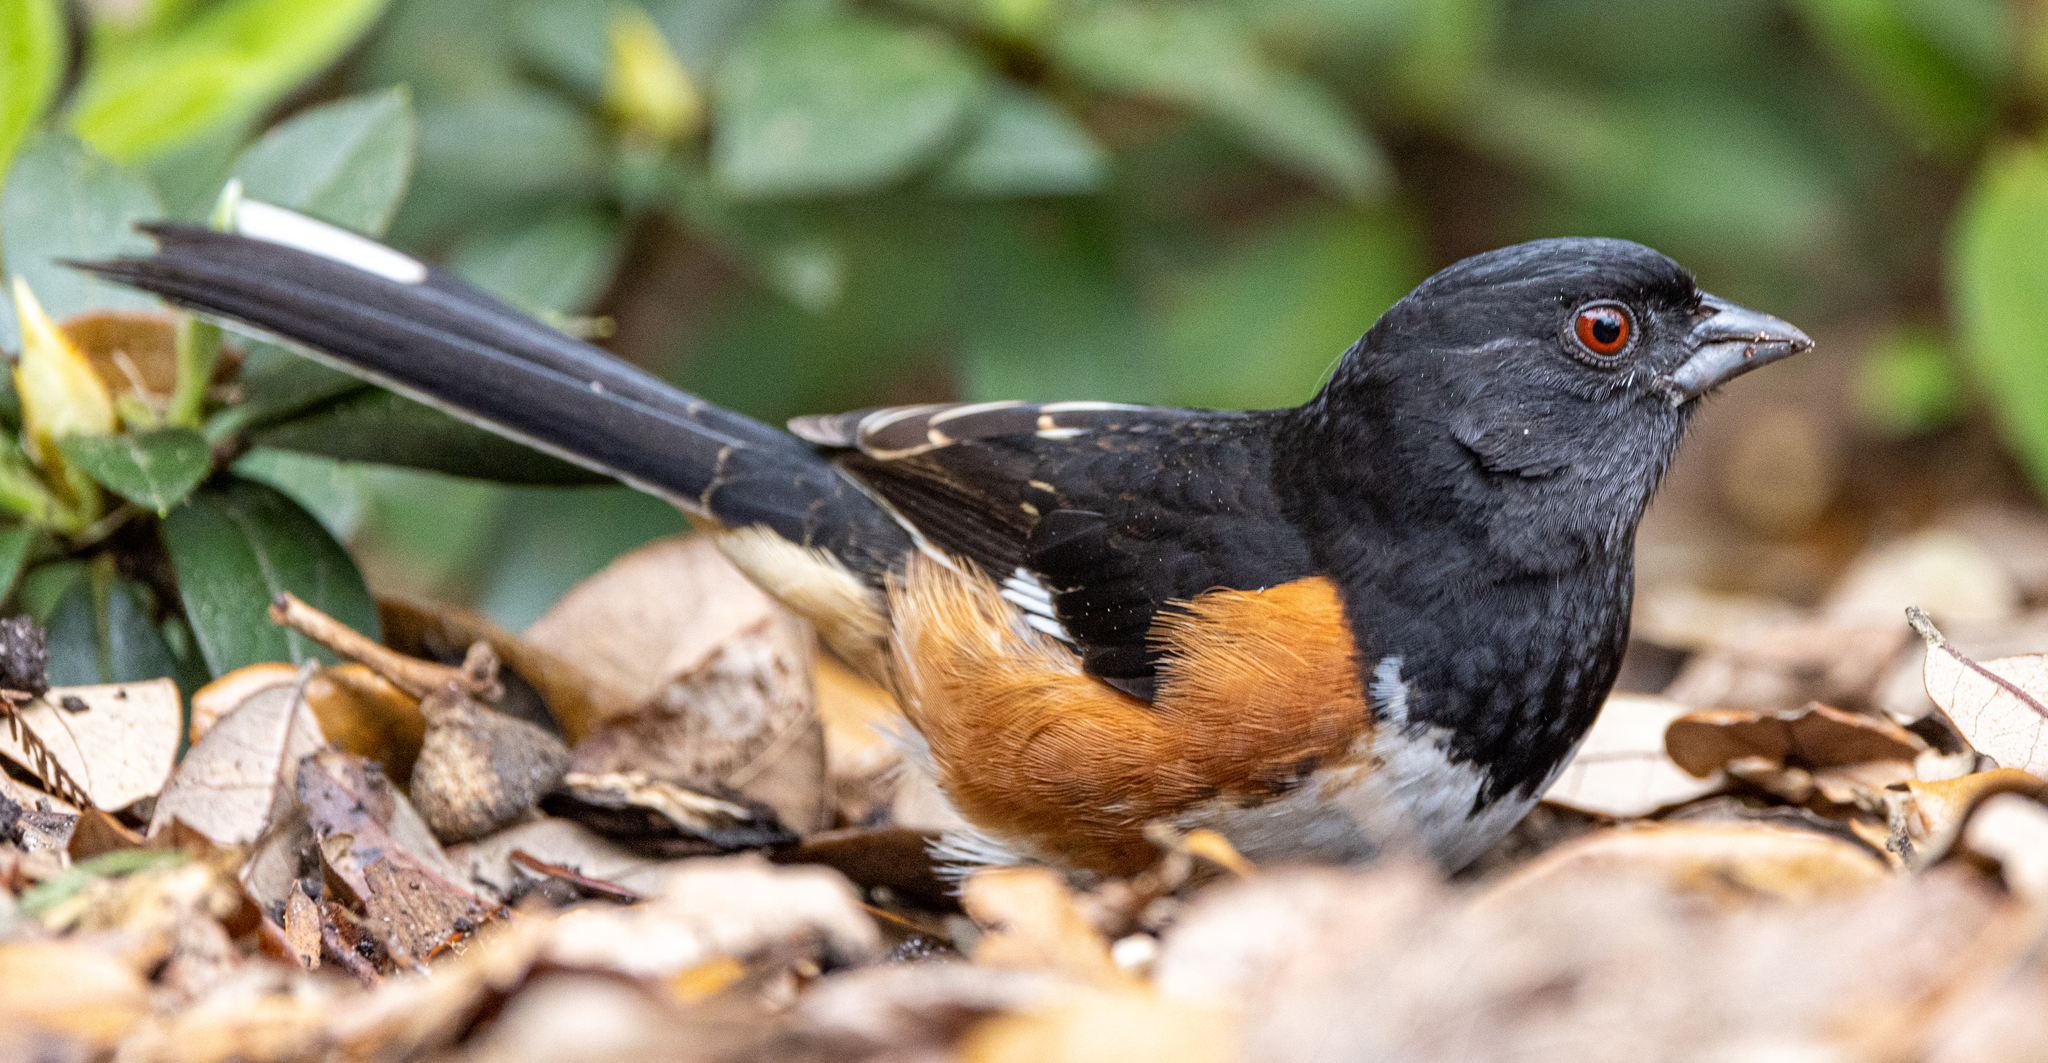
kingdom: Animalia
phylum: Chordata
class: Aves
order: Passeriformes
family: Passerellidae
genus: Pipilo
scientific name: Pipilo erythrophthalmus
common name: Eastern towhee
